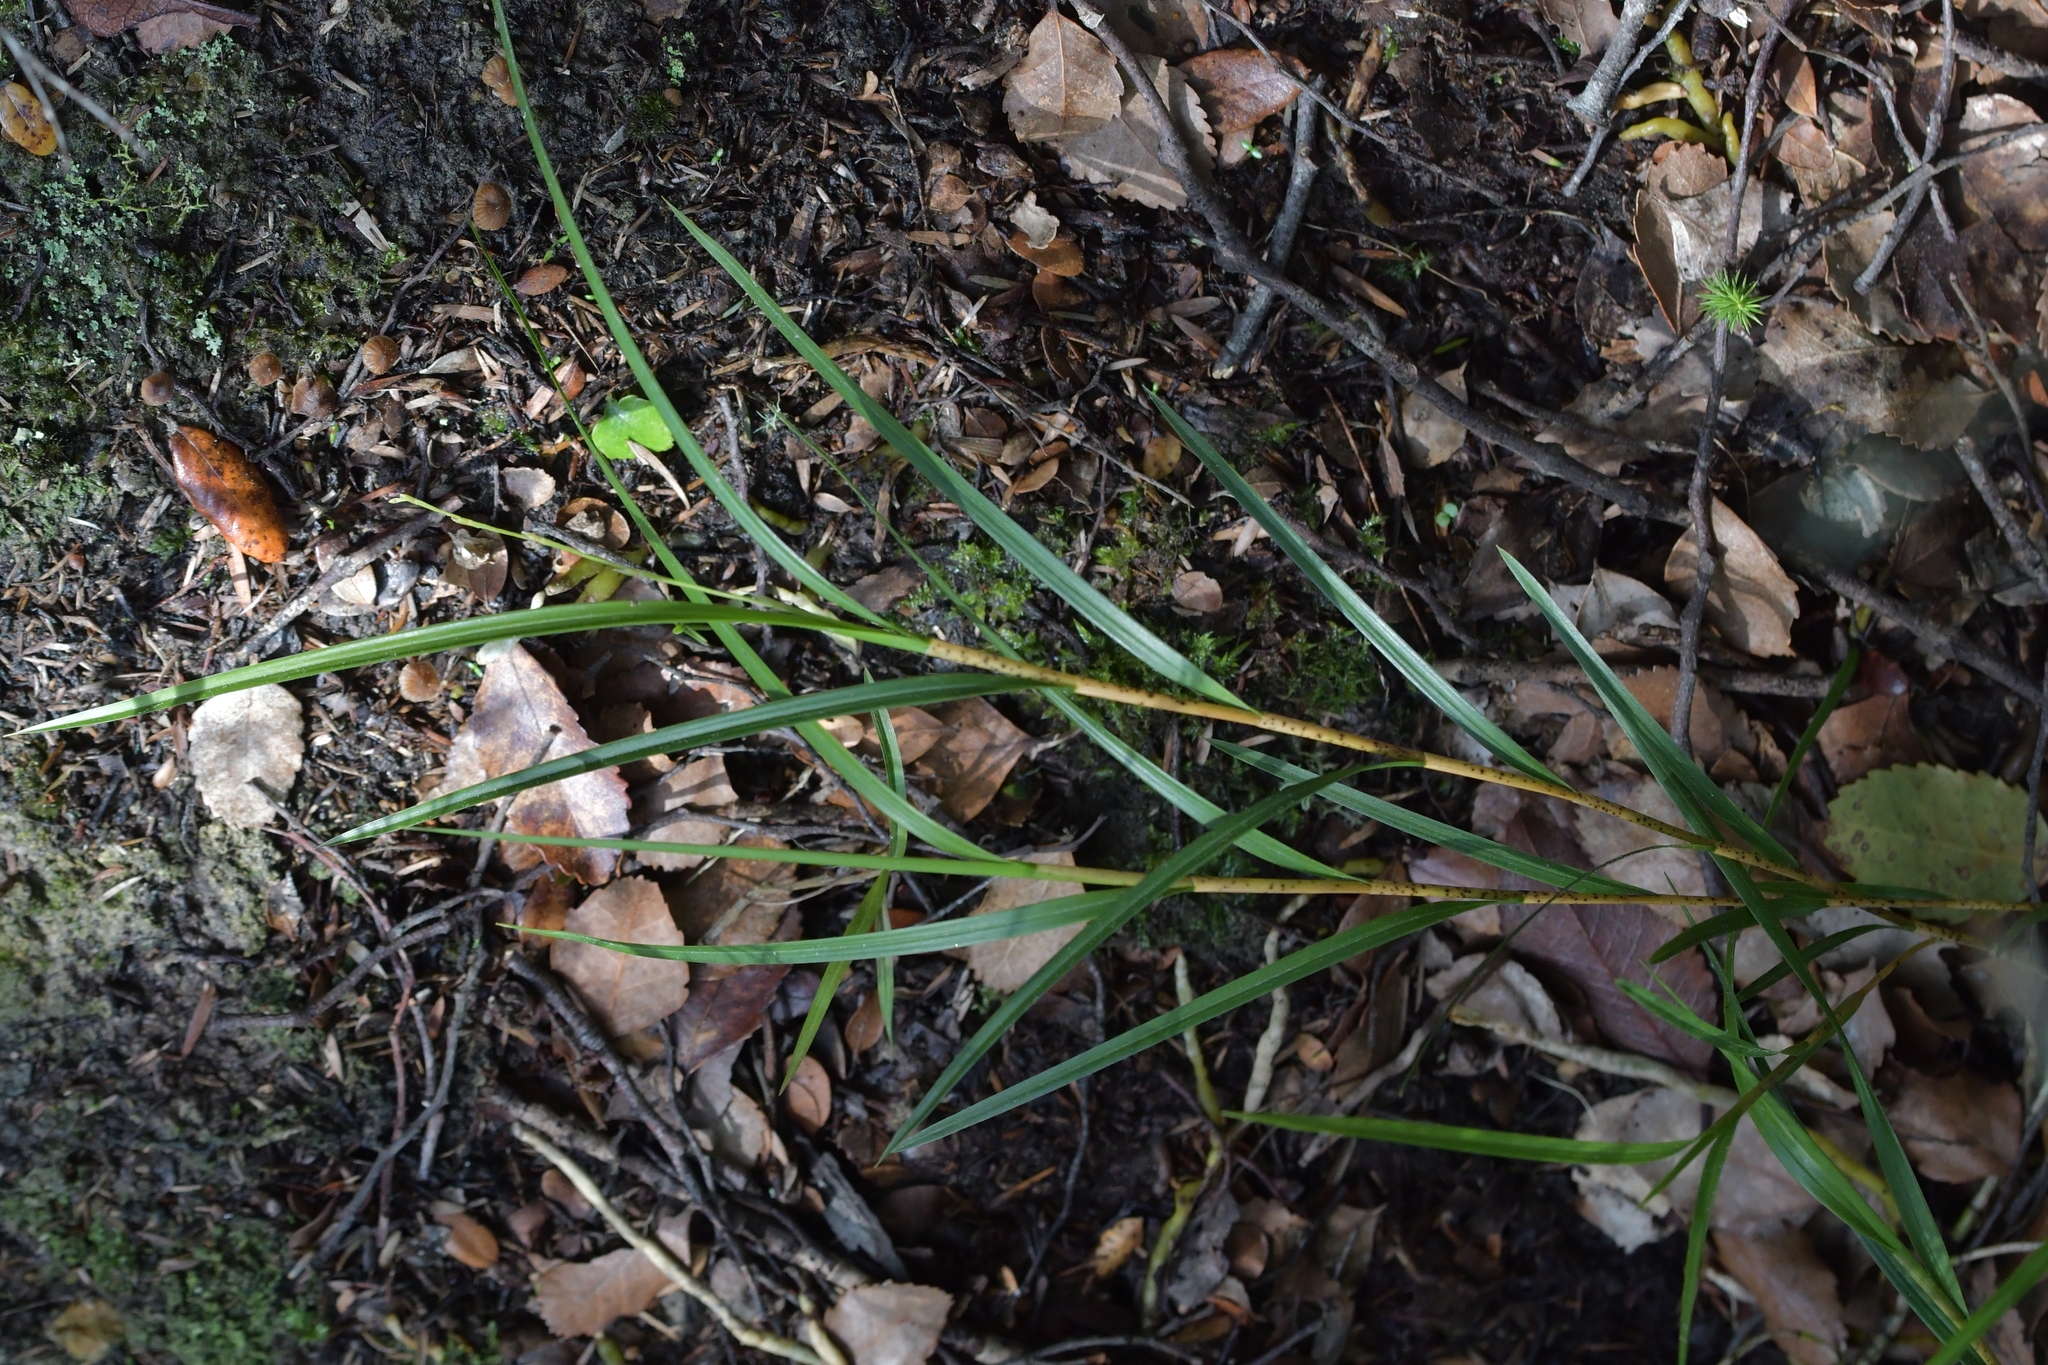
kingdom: Plantae
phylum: Tracheophyta
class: Liliopsida
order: Asparagales
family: Orchidaceae
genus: Earina
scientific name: Earina mucronata
